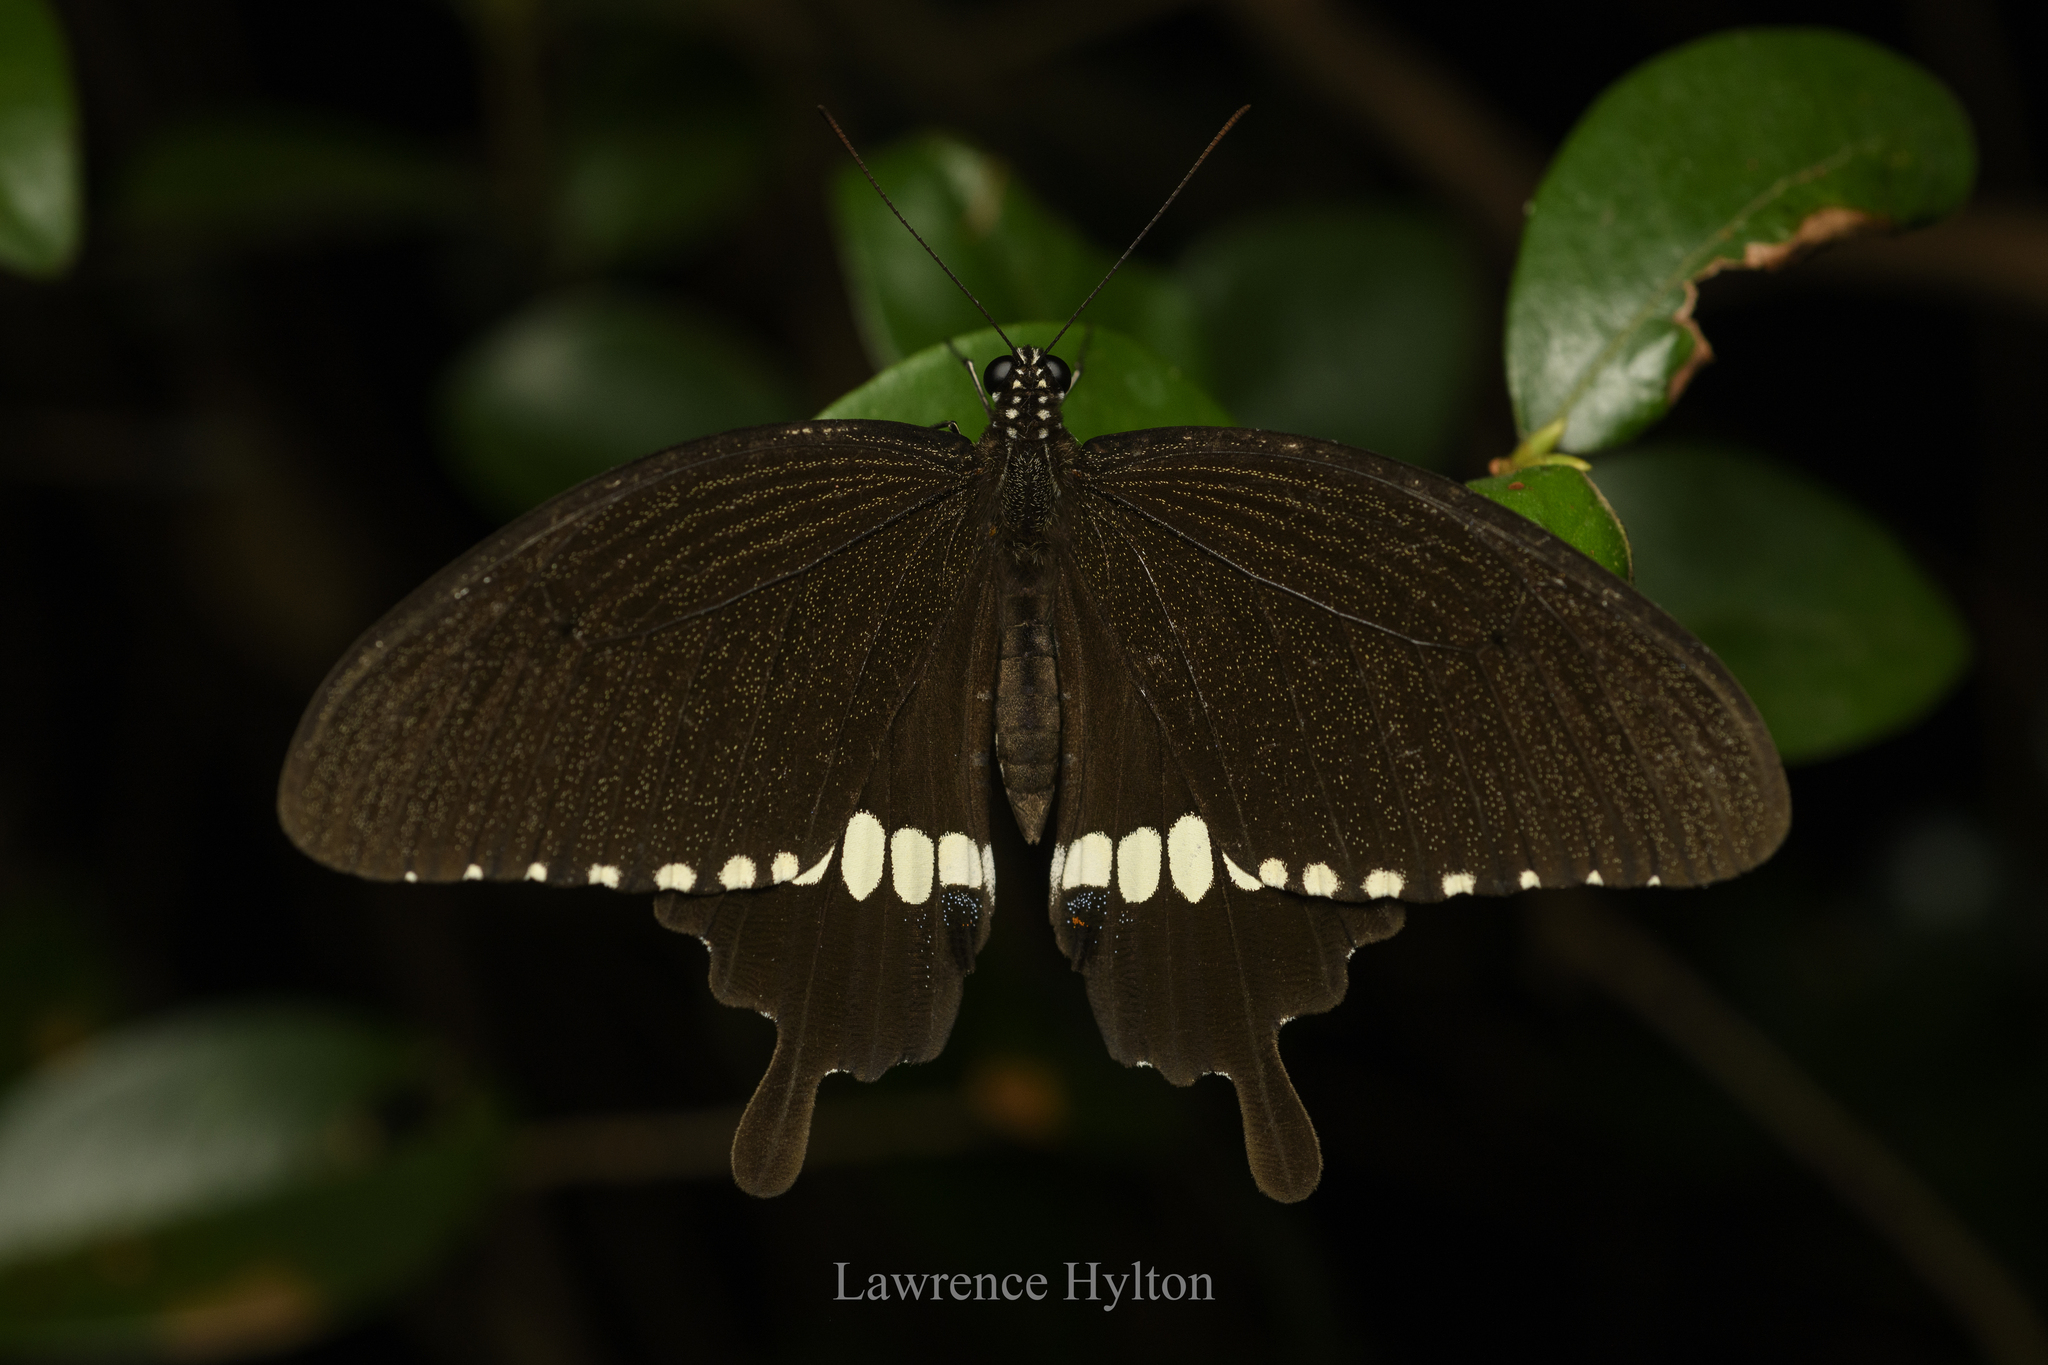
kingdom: Animalia
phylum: Arthropoda
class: Insecta
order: Lepidoptera
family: Papilionidae
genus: Papilio
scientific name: Papilio polytes
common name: Common mormon
